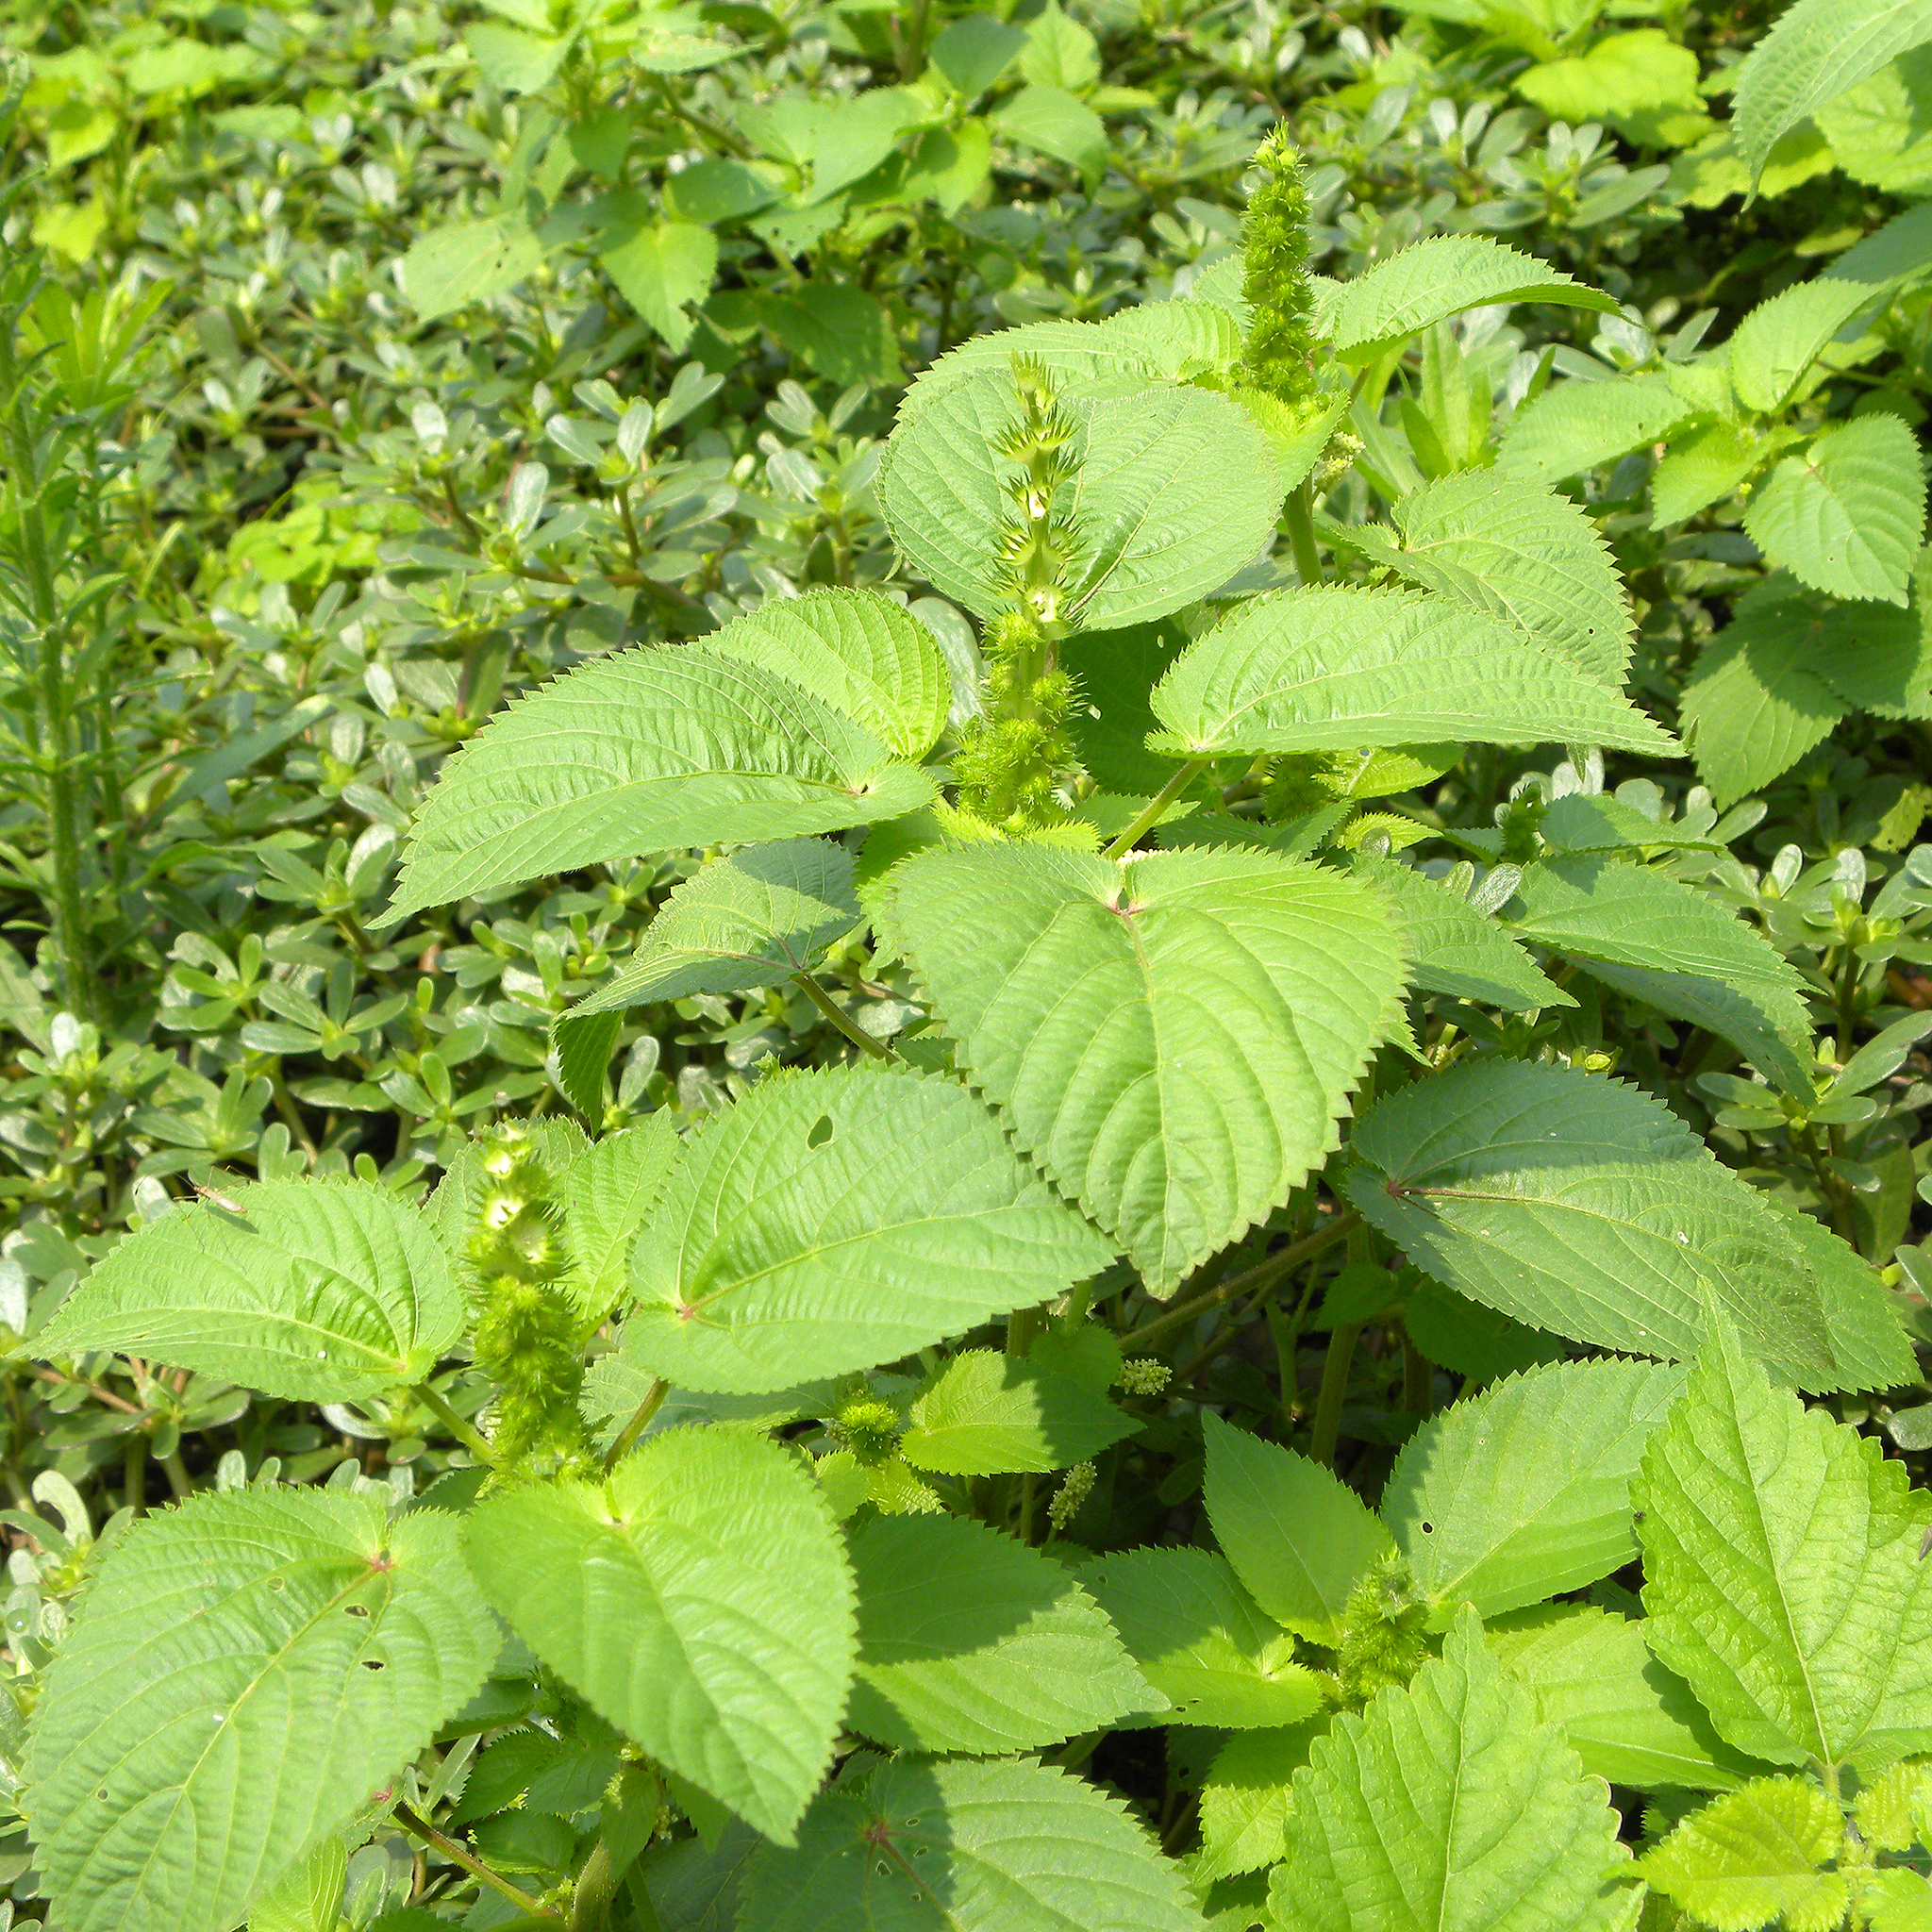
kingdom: Plantae
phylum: Tracheophyta
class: Magnoliopsida
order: Malpighiales
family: Euphorbiaceae
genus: Acalypha
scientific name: Acalypha ostryifolia
